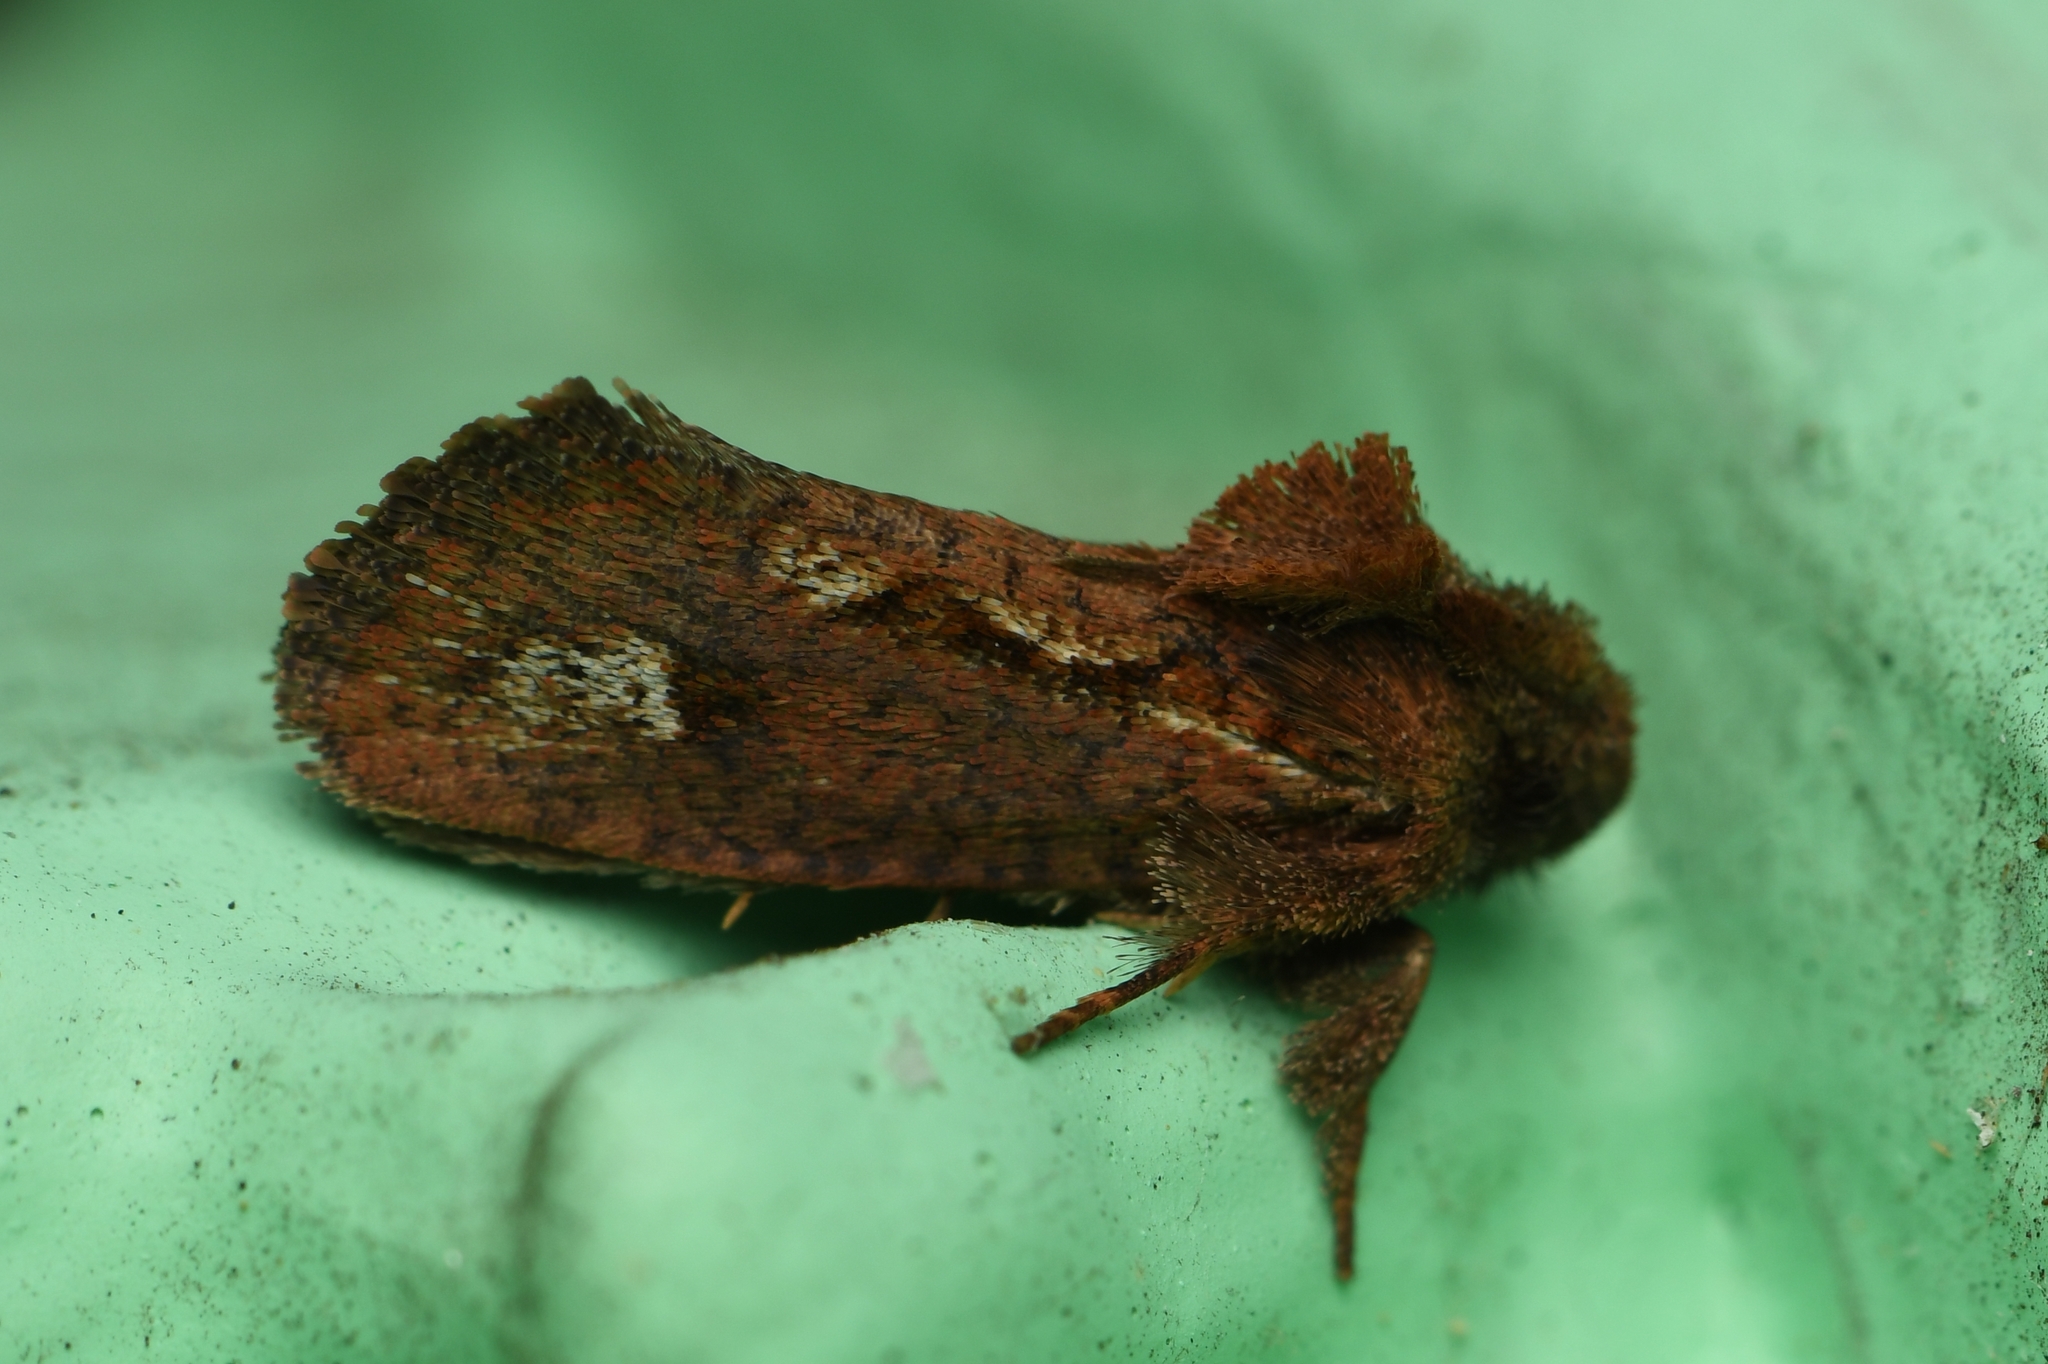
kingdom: Animalia
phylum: Arthropoda
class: Insecta
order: Lepidoptera
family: Tineidae
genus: Acrolophus
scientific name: Acrolophus walsinghami
